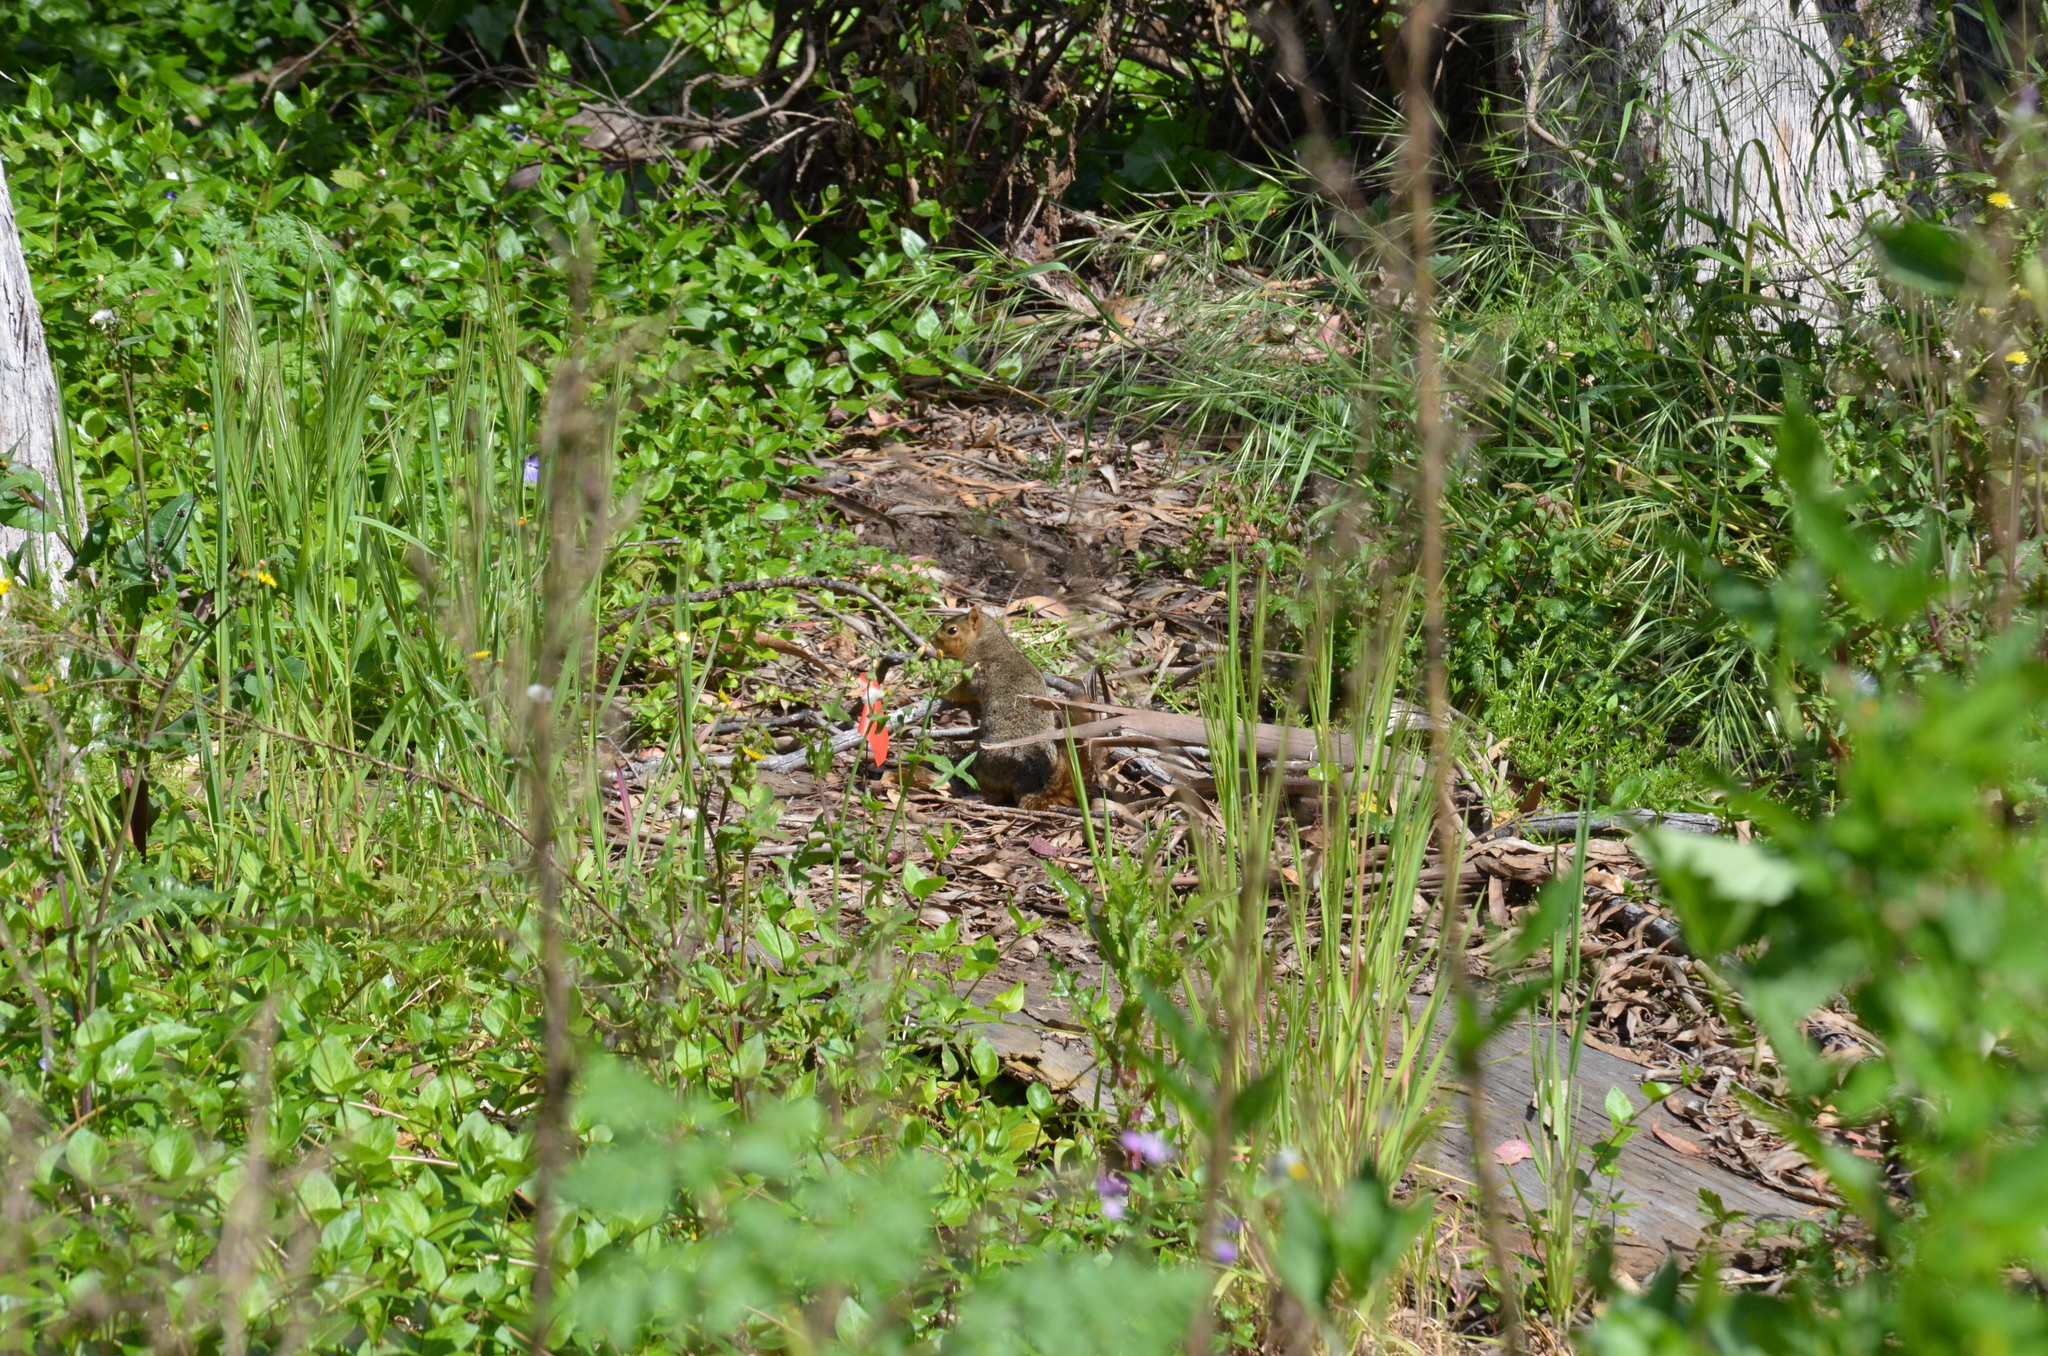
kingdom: Animalia
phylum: Chordata
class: Mammalia
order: Rodentia
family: Sciuridae
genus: Sciurus
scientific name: Sciurus niger
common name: Fox squirrel
